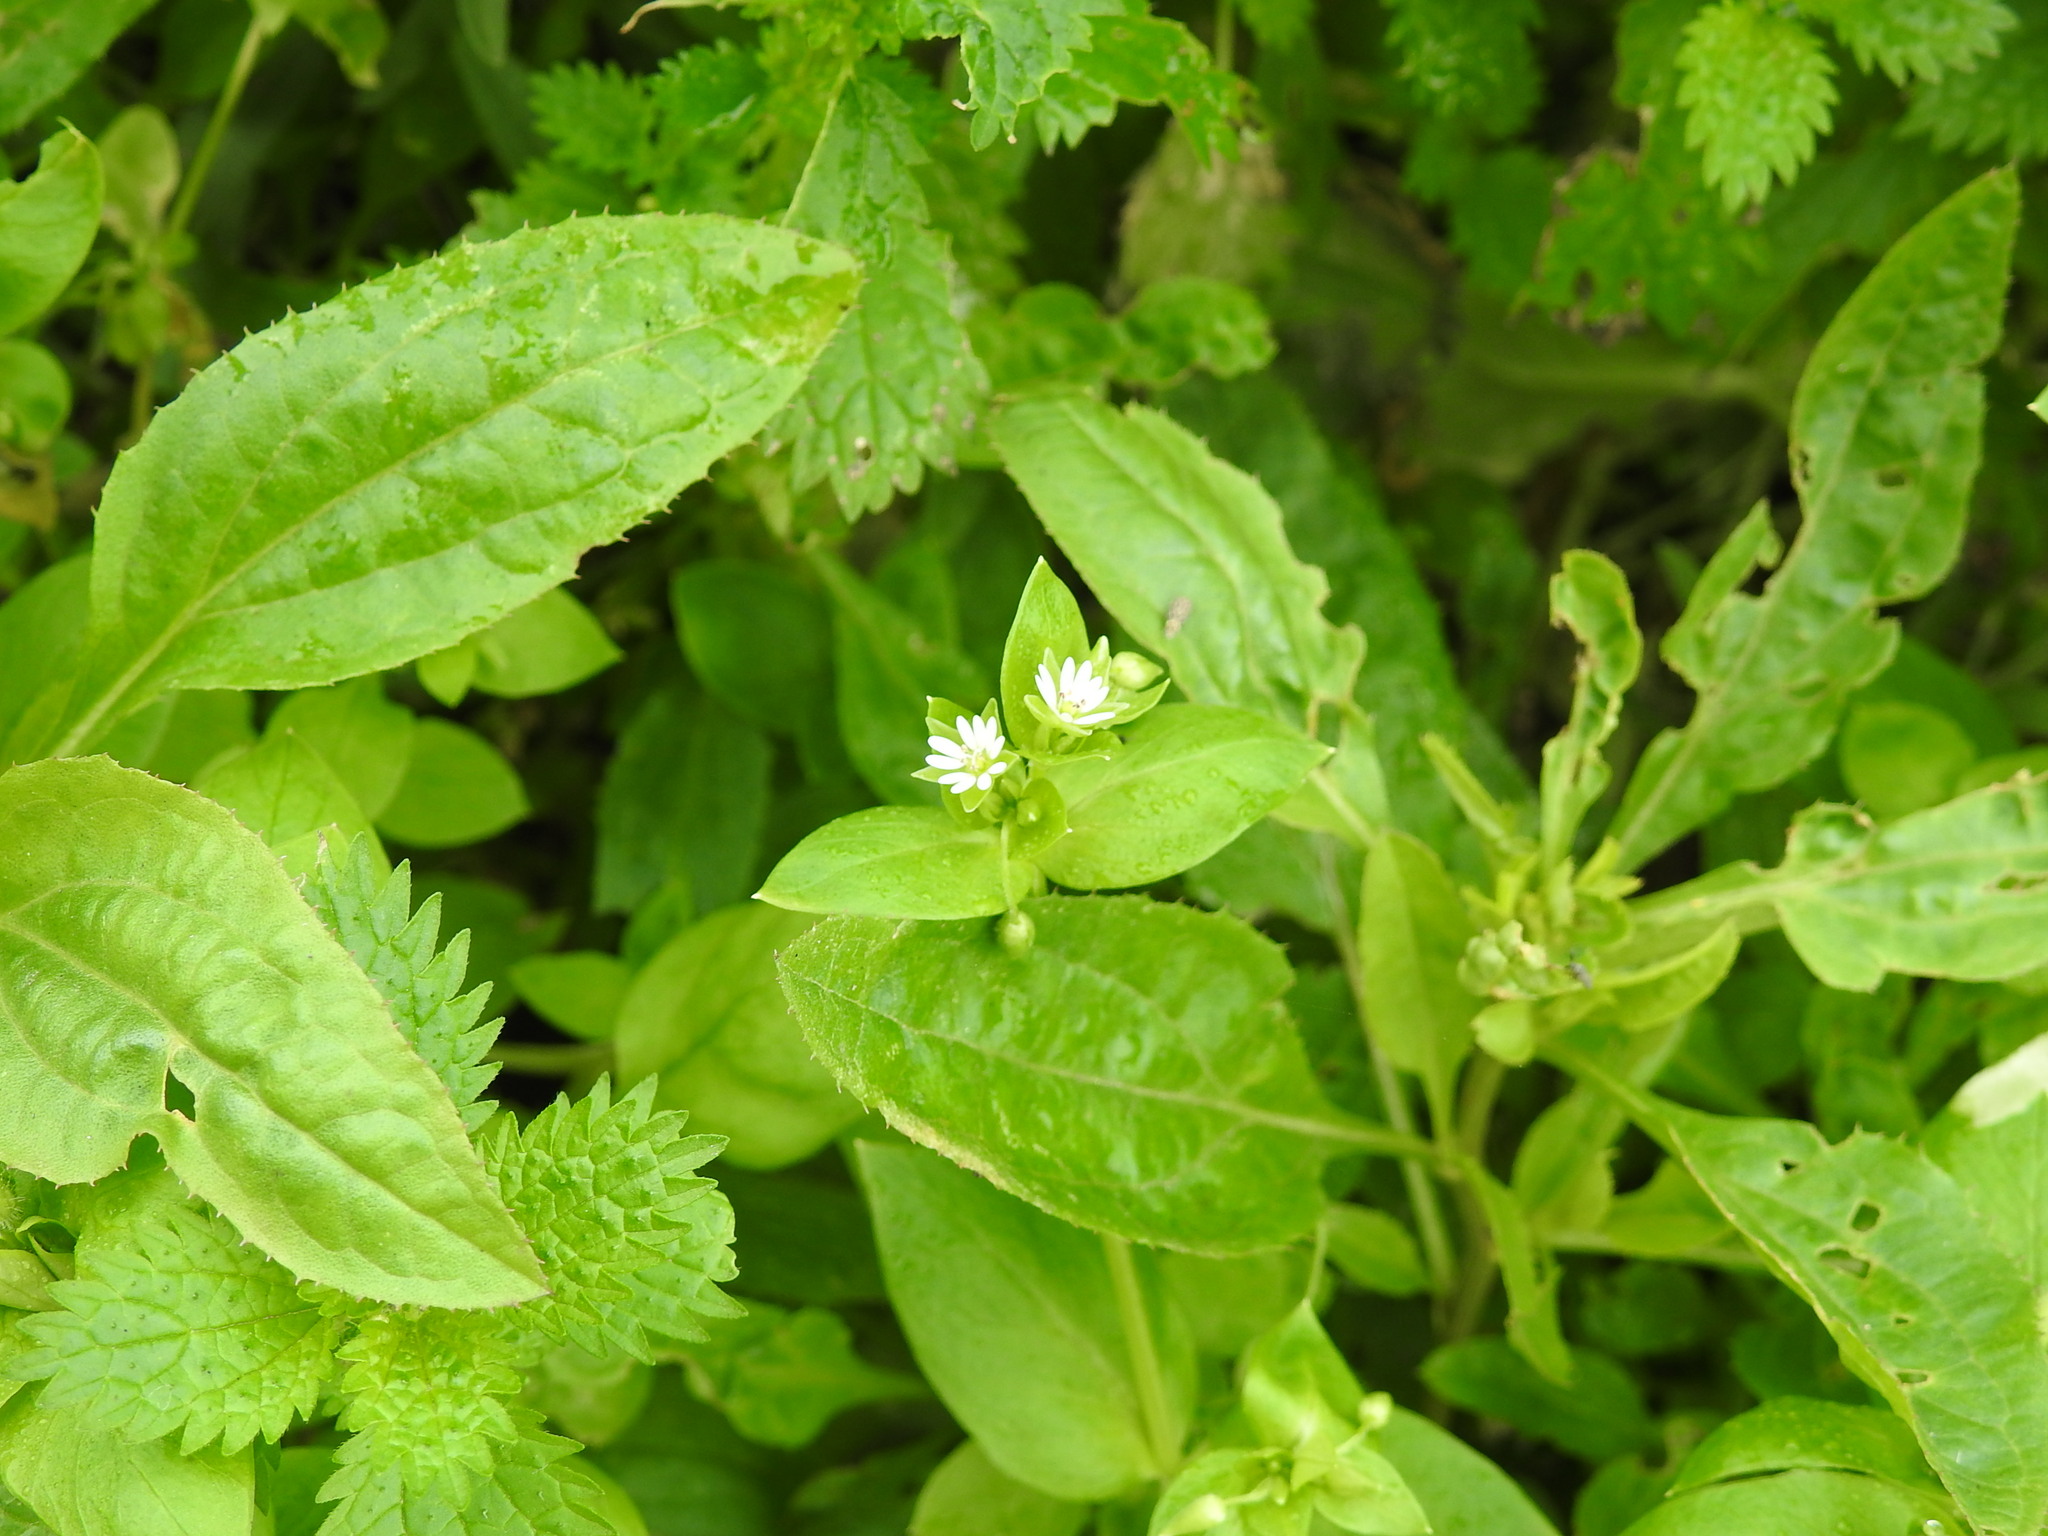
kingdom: Plantae
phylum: Tracheophyta
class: Magnoliopsida
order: Caryophyllales
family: Caryophyllaceae
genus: Stellaria
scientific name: Stellaria media
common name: Common chickweed
